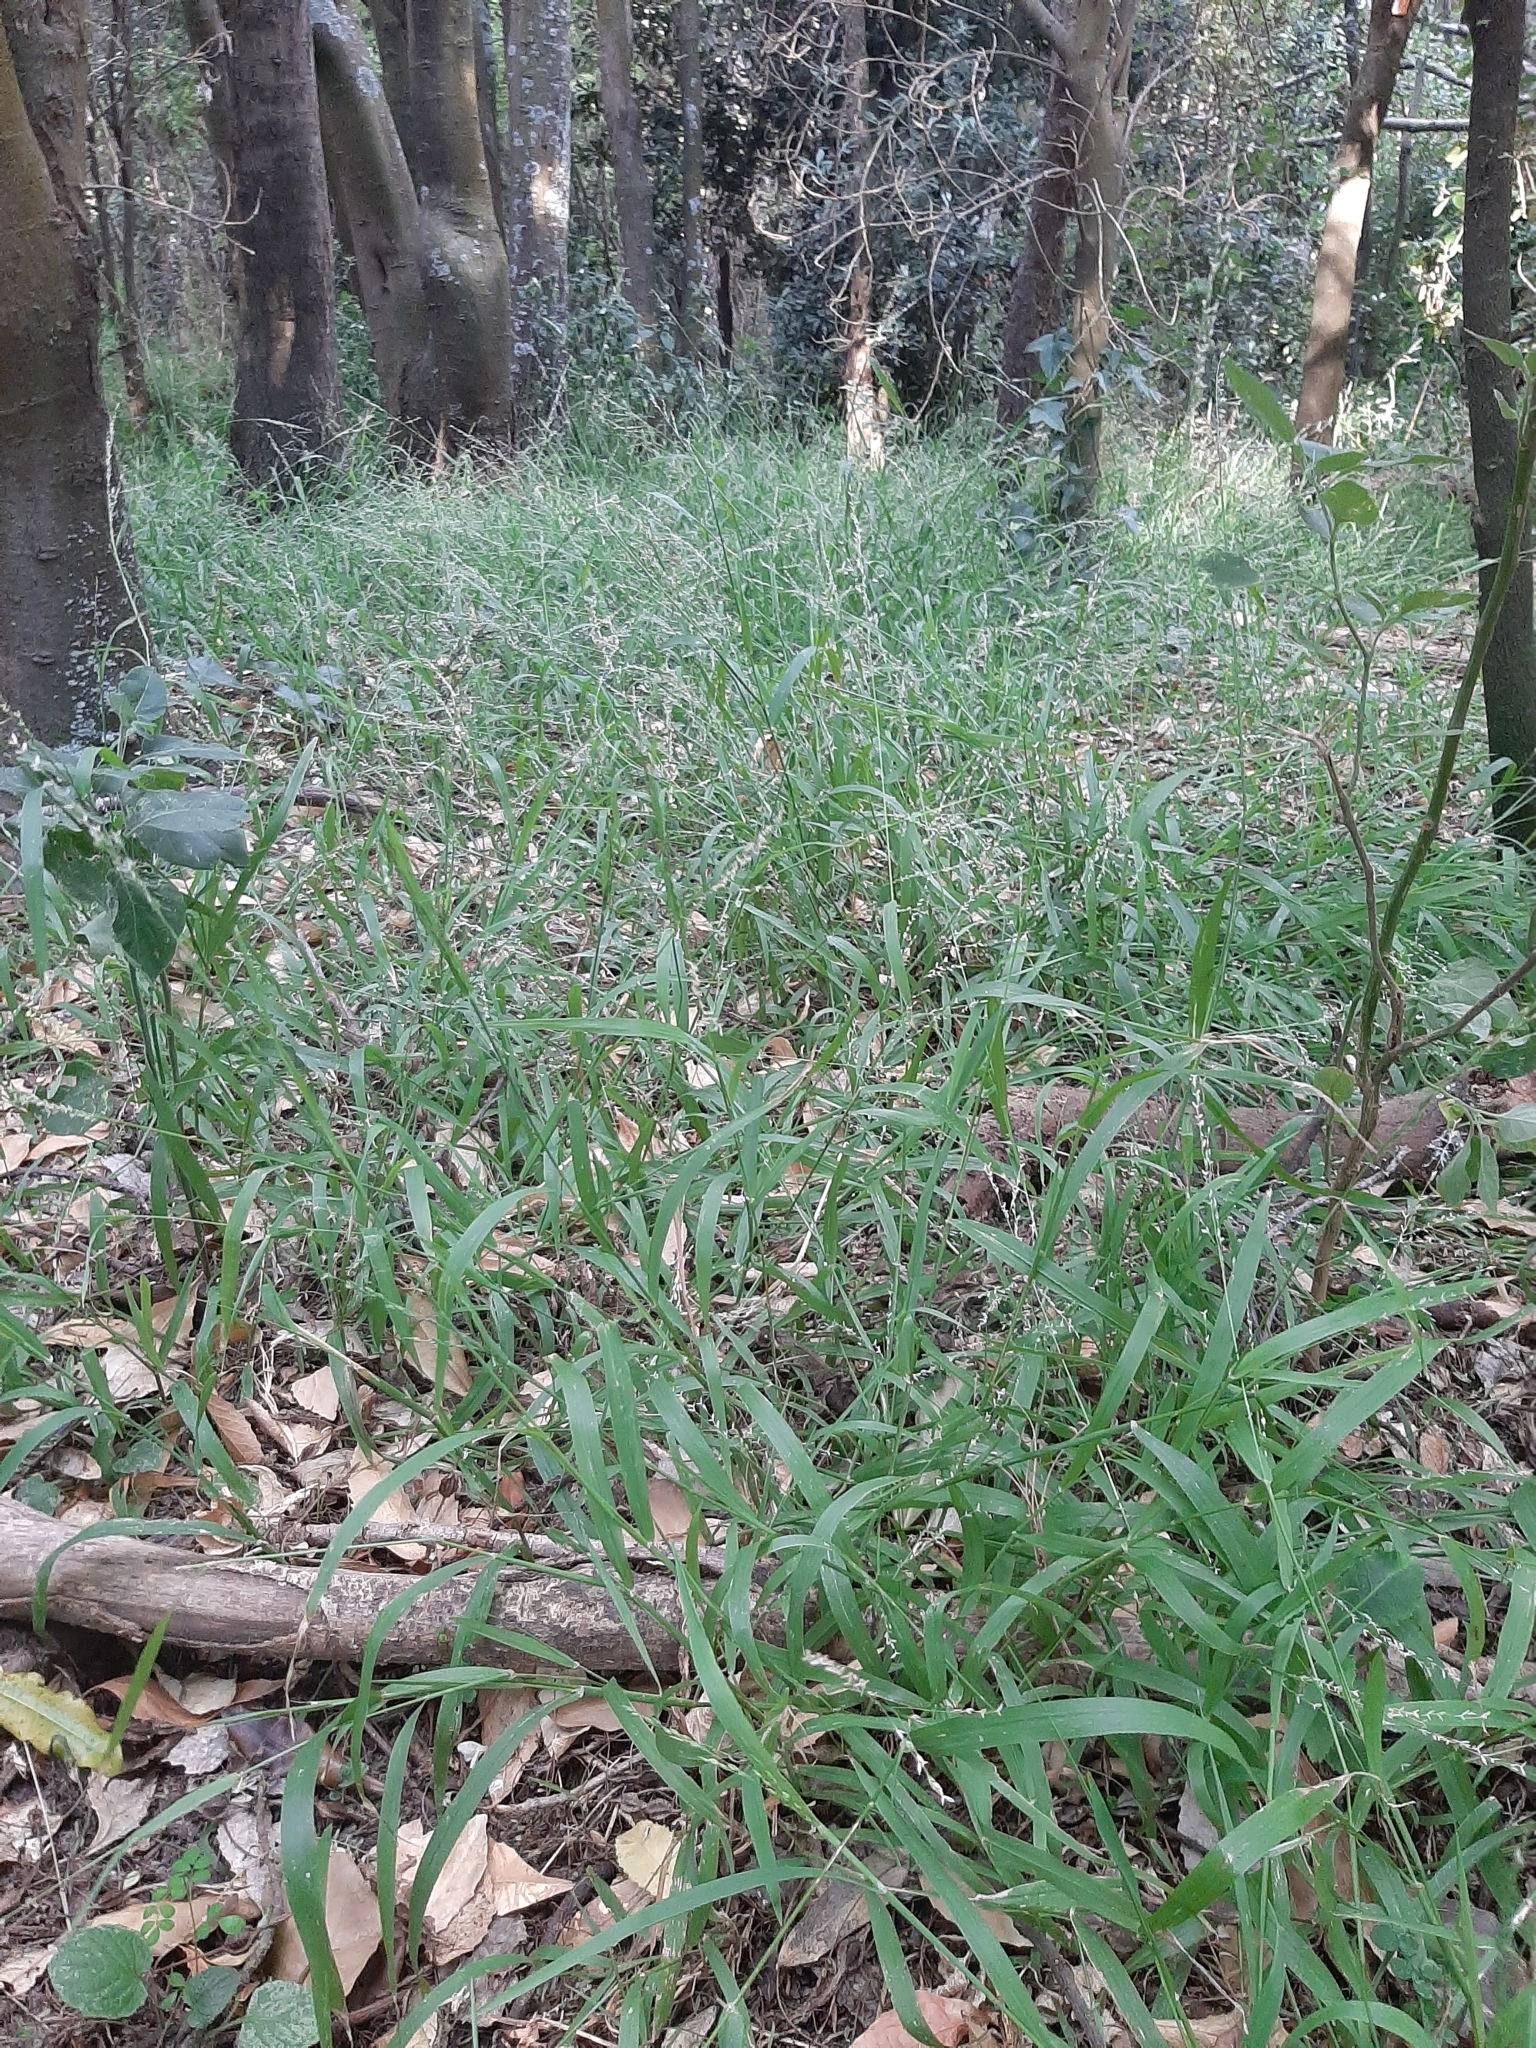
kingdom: Plantae
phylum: Tracheophyta
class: Liliopsida
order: Poales
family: Poaceae
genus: Ehrharta
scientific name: Ehrharta erecta
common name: Panic veldtgrass
